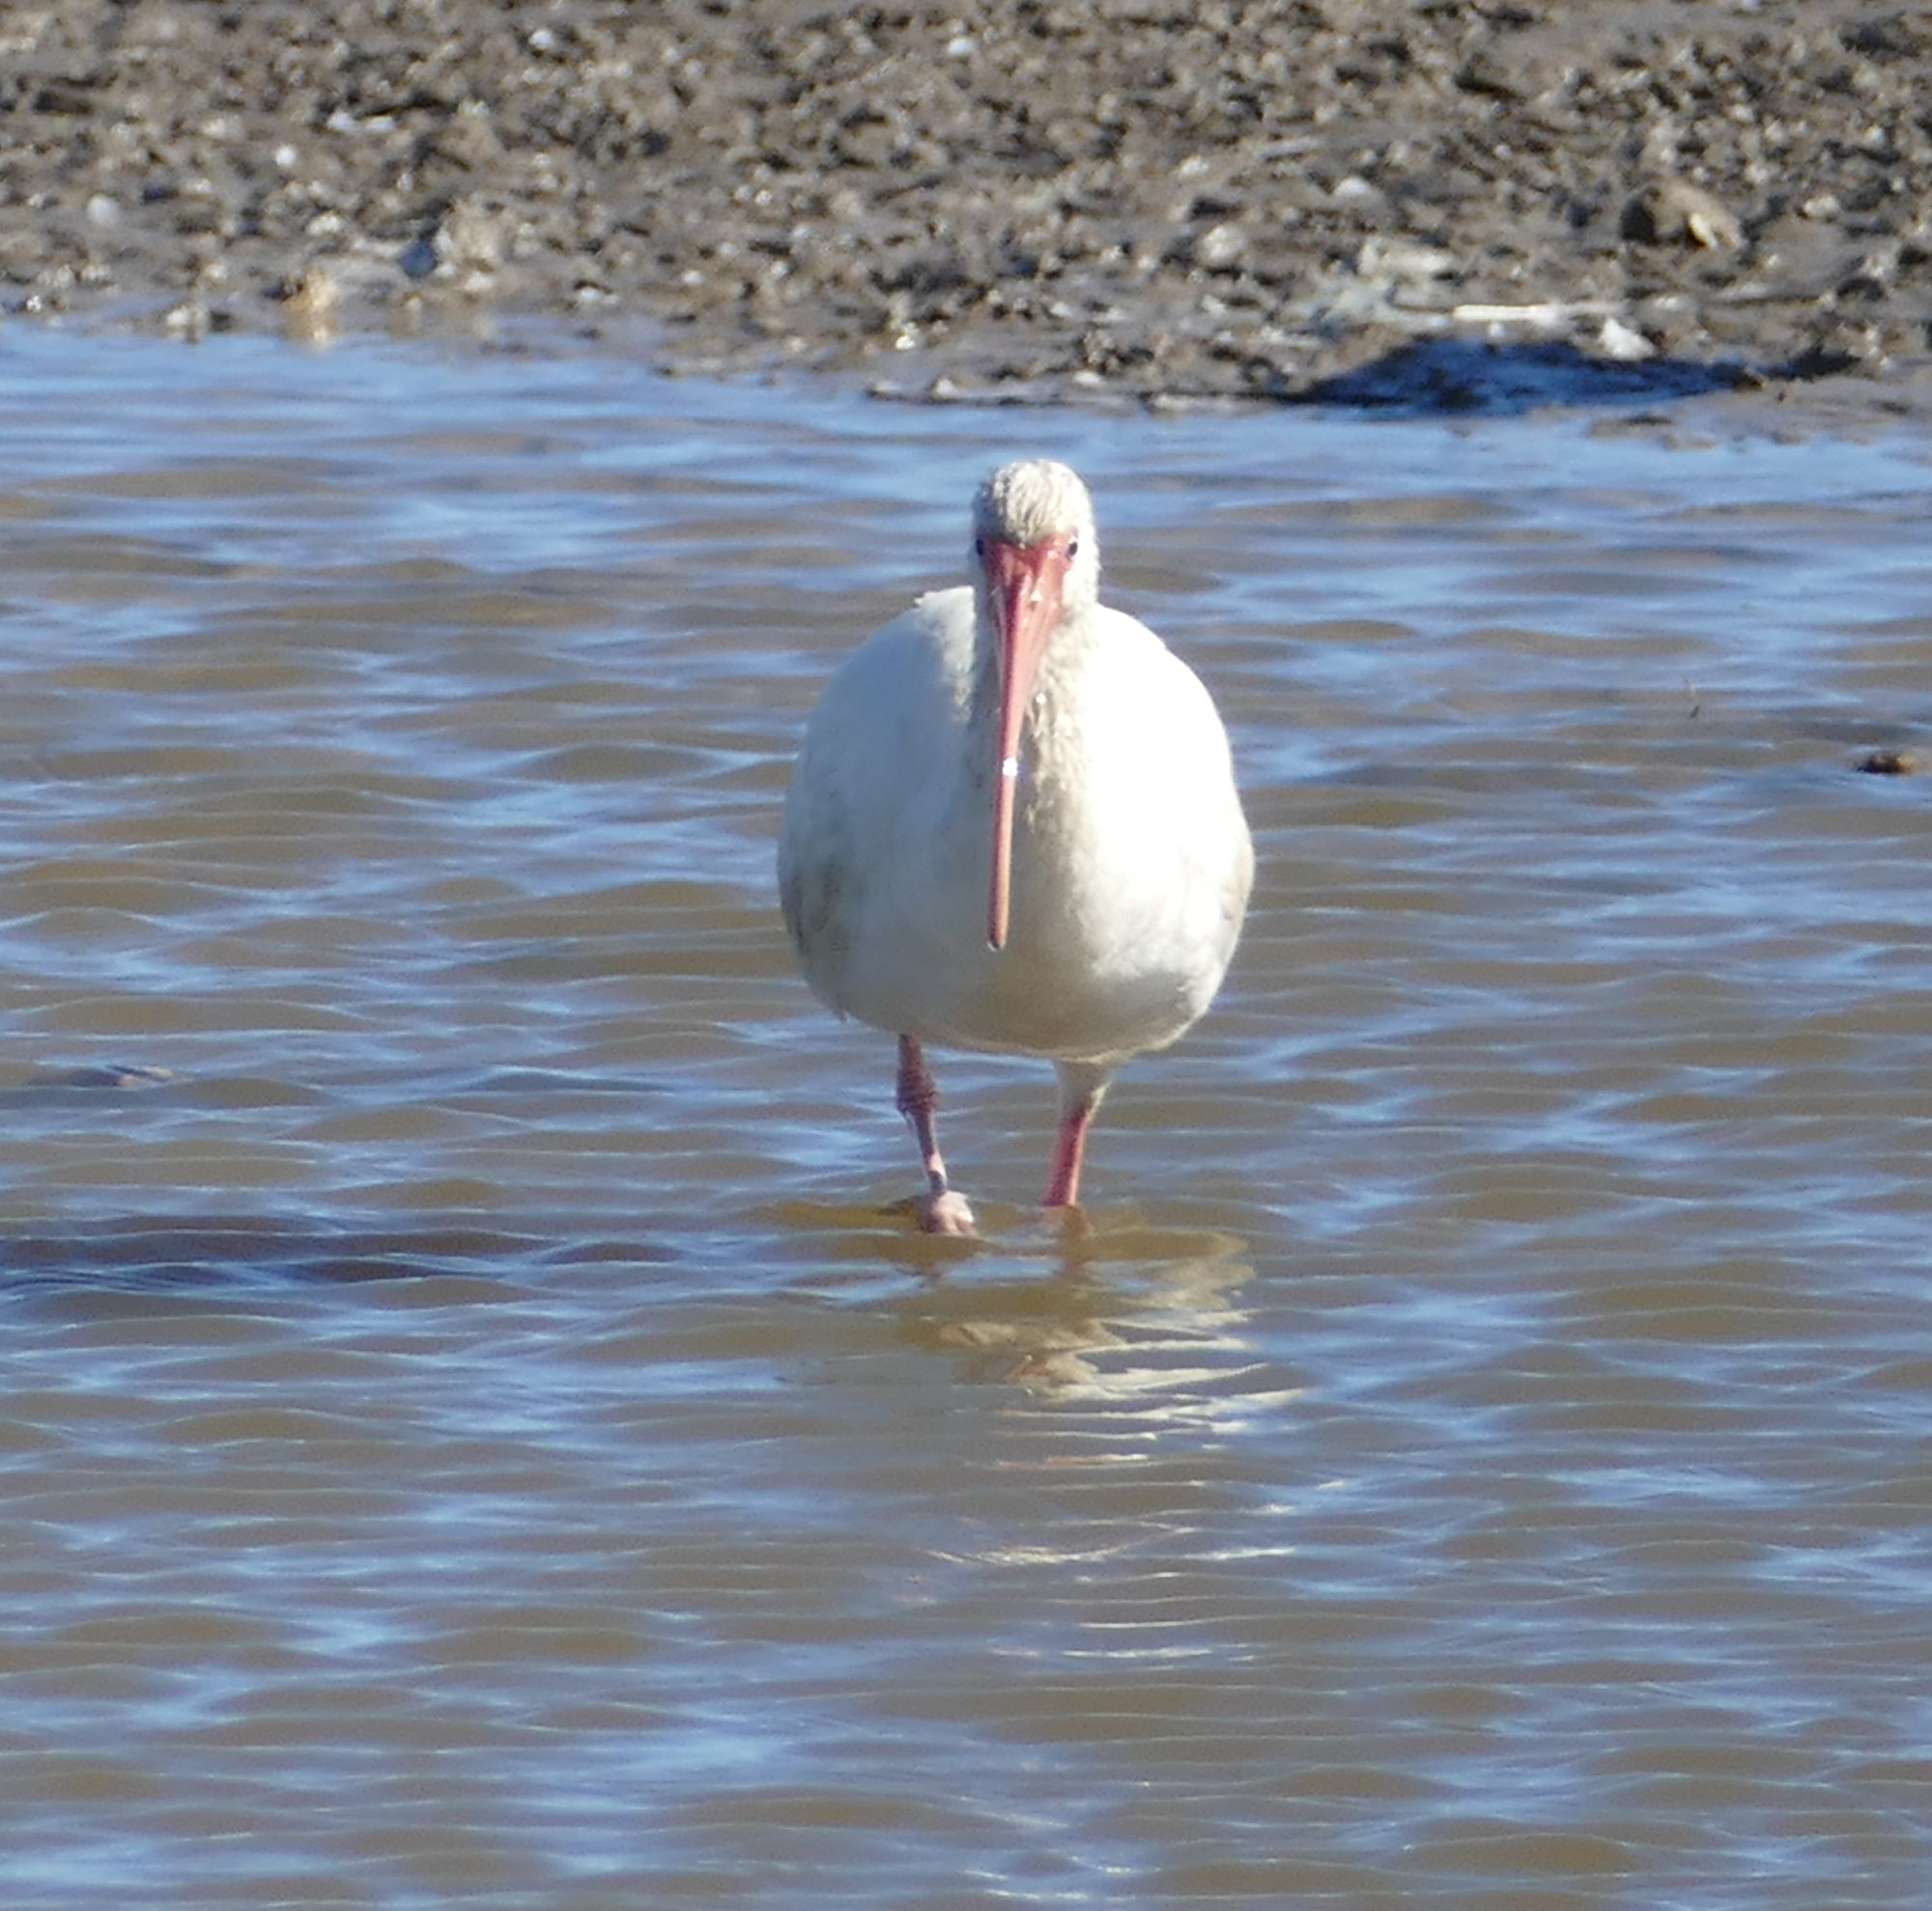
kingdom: Animalia
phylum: Chordata
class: Aves
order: Pelecaniformes
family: Threskiornithidae
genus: Eudocimus
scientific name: Eudocimus albus
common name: White ibis
